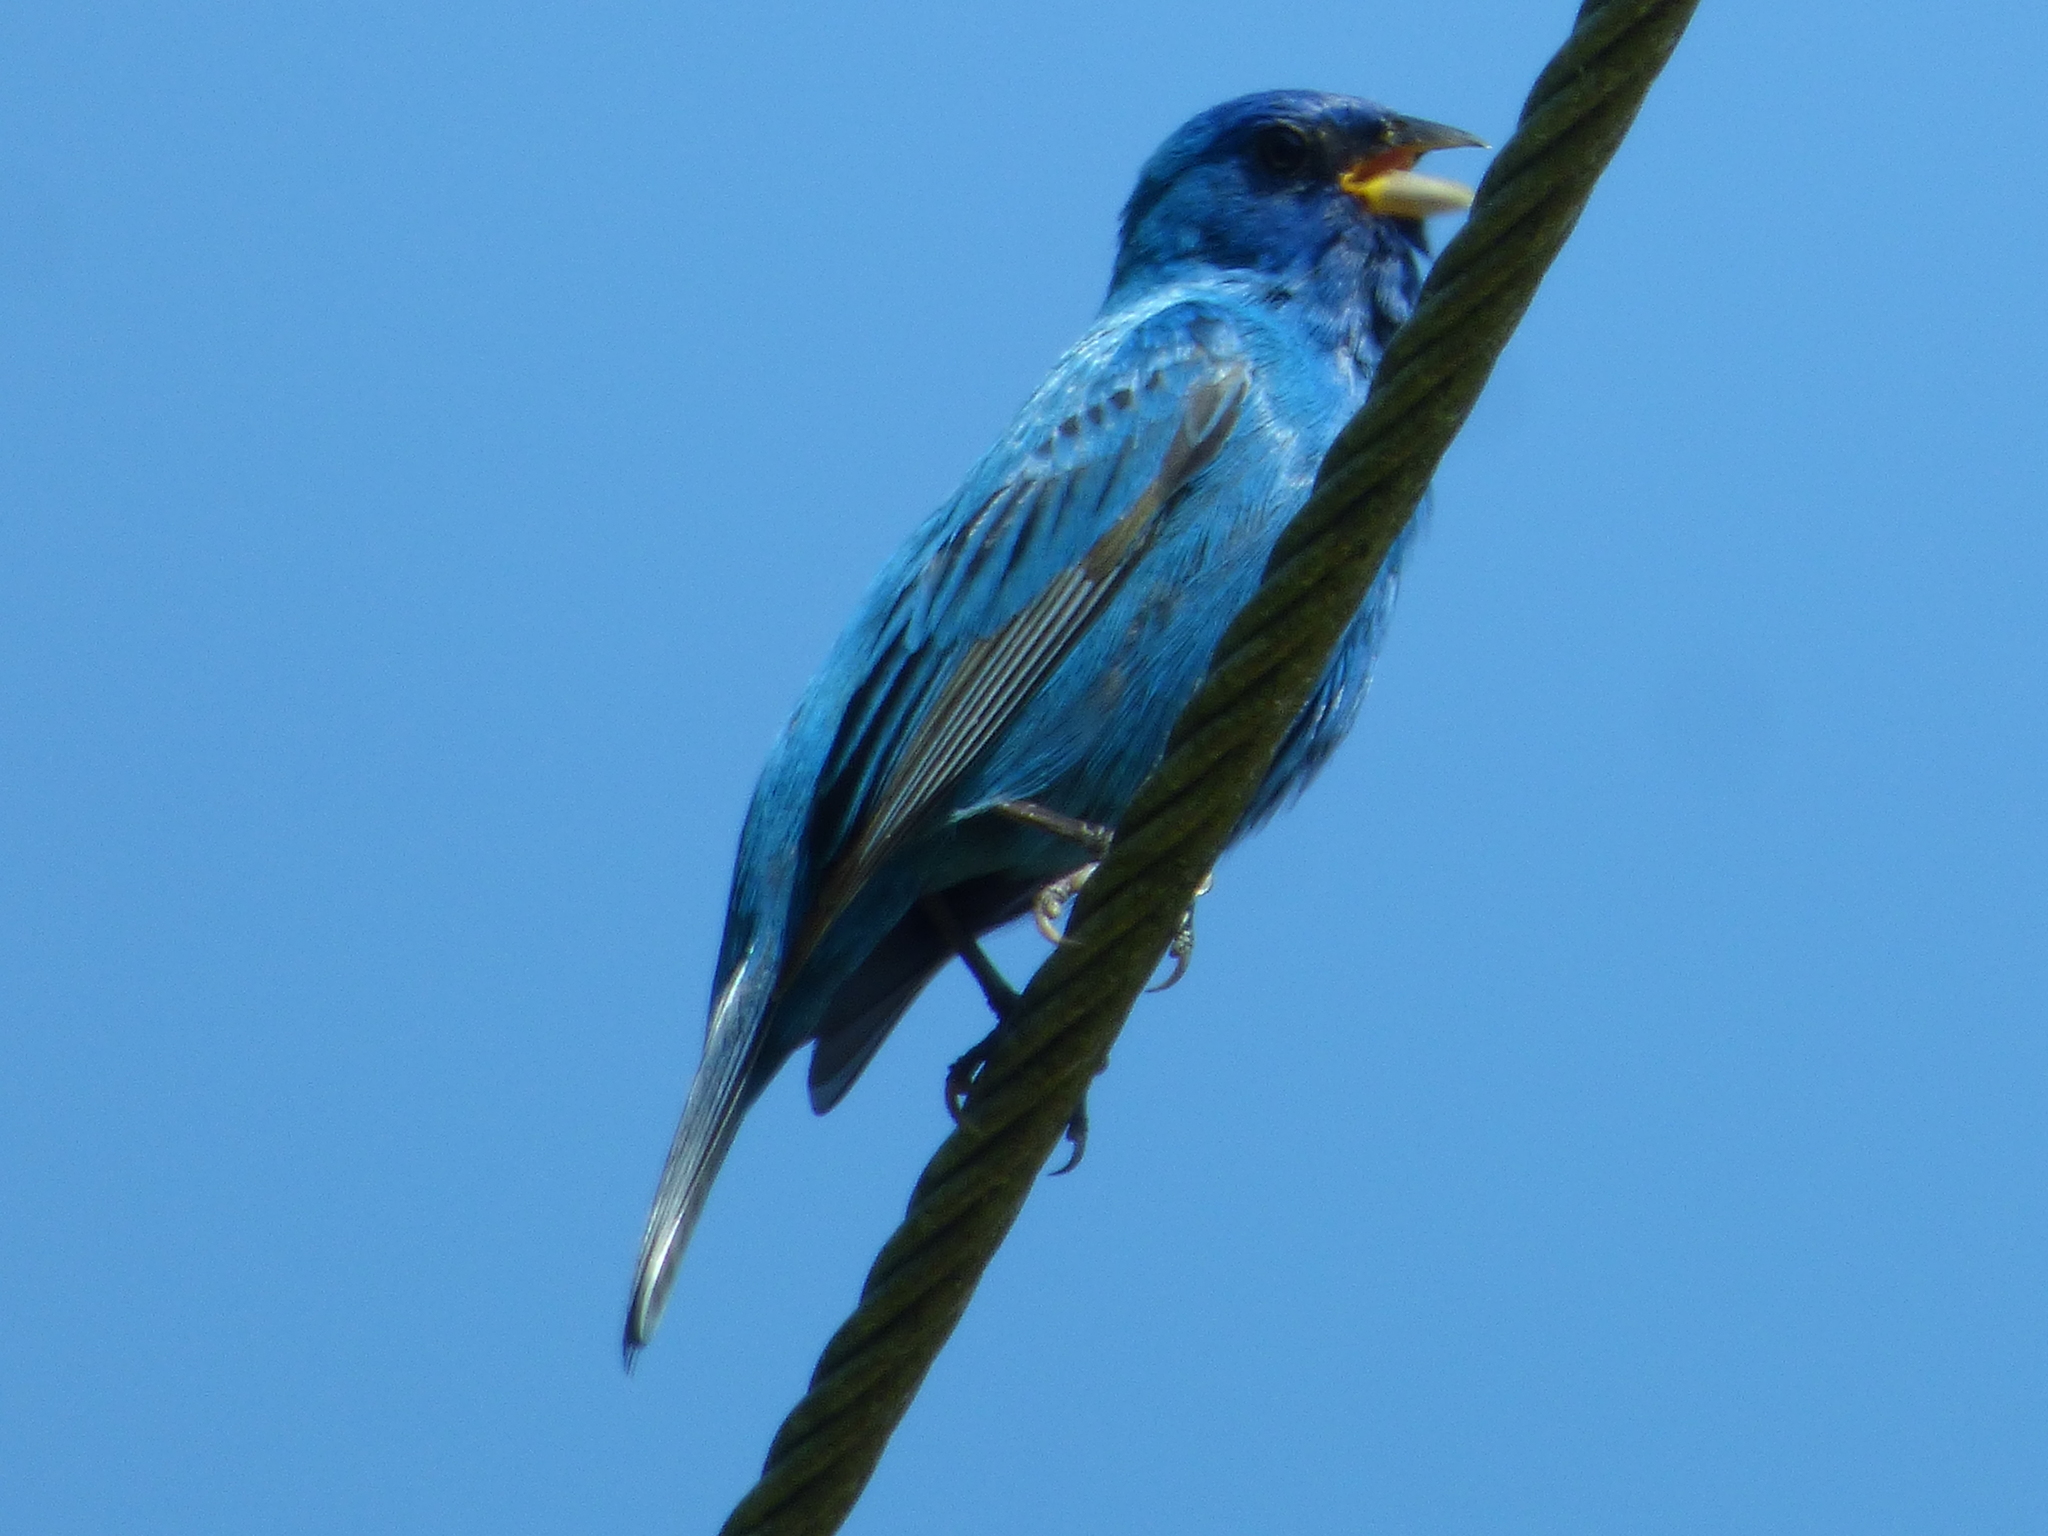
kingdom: Animalia
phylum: Chordata
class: Aves
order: Passeriformes
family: Cardinalidae
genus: Passerina
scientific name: Passerina cyanea
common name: Indigo bunting
